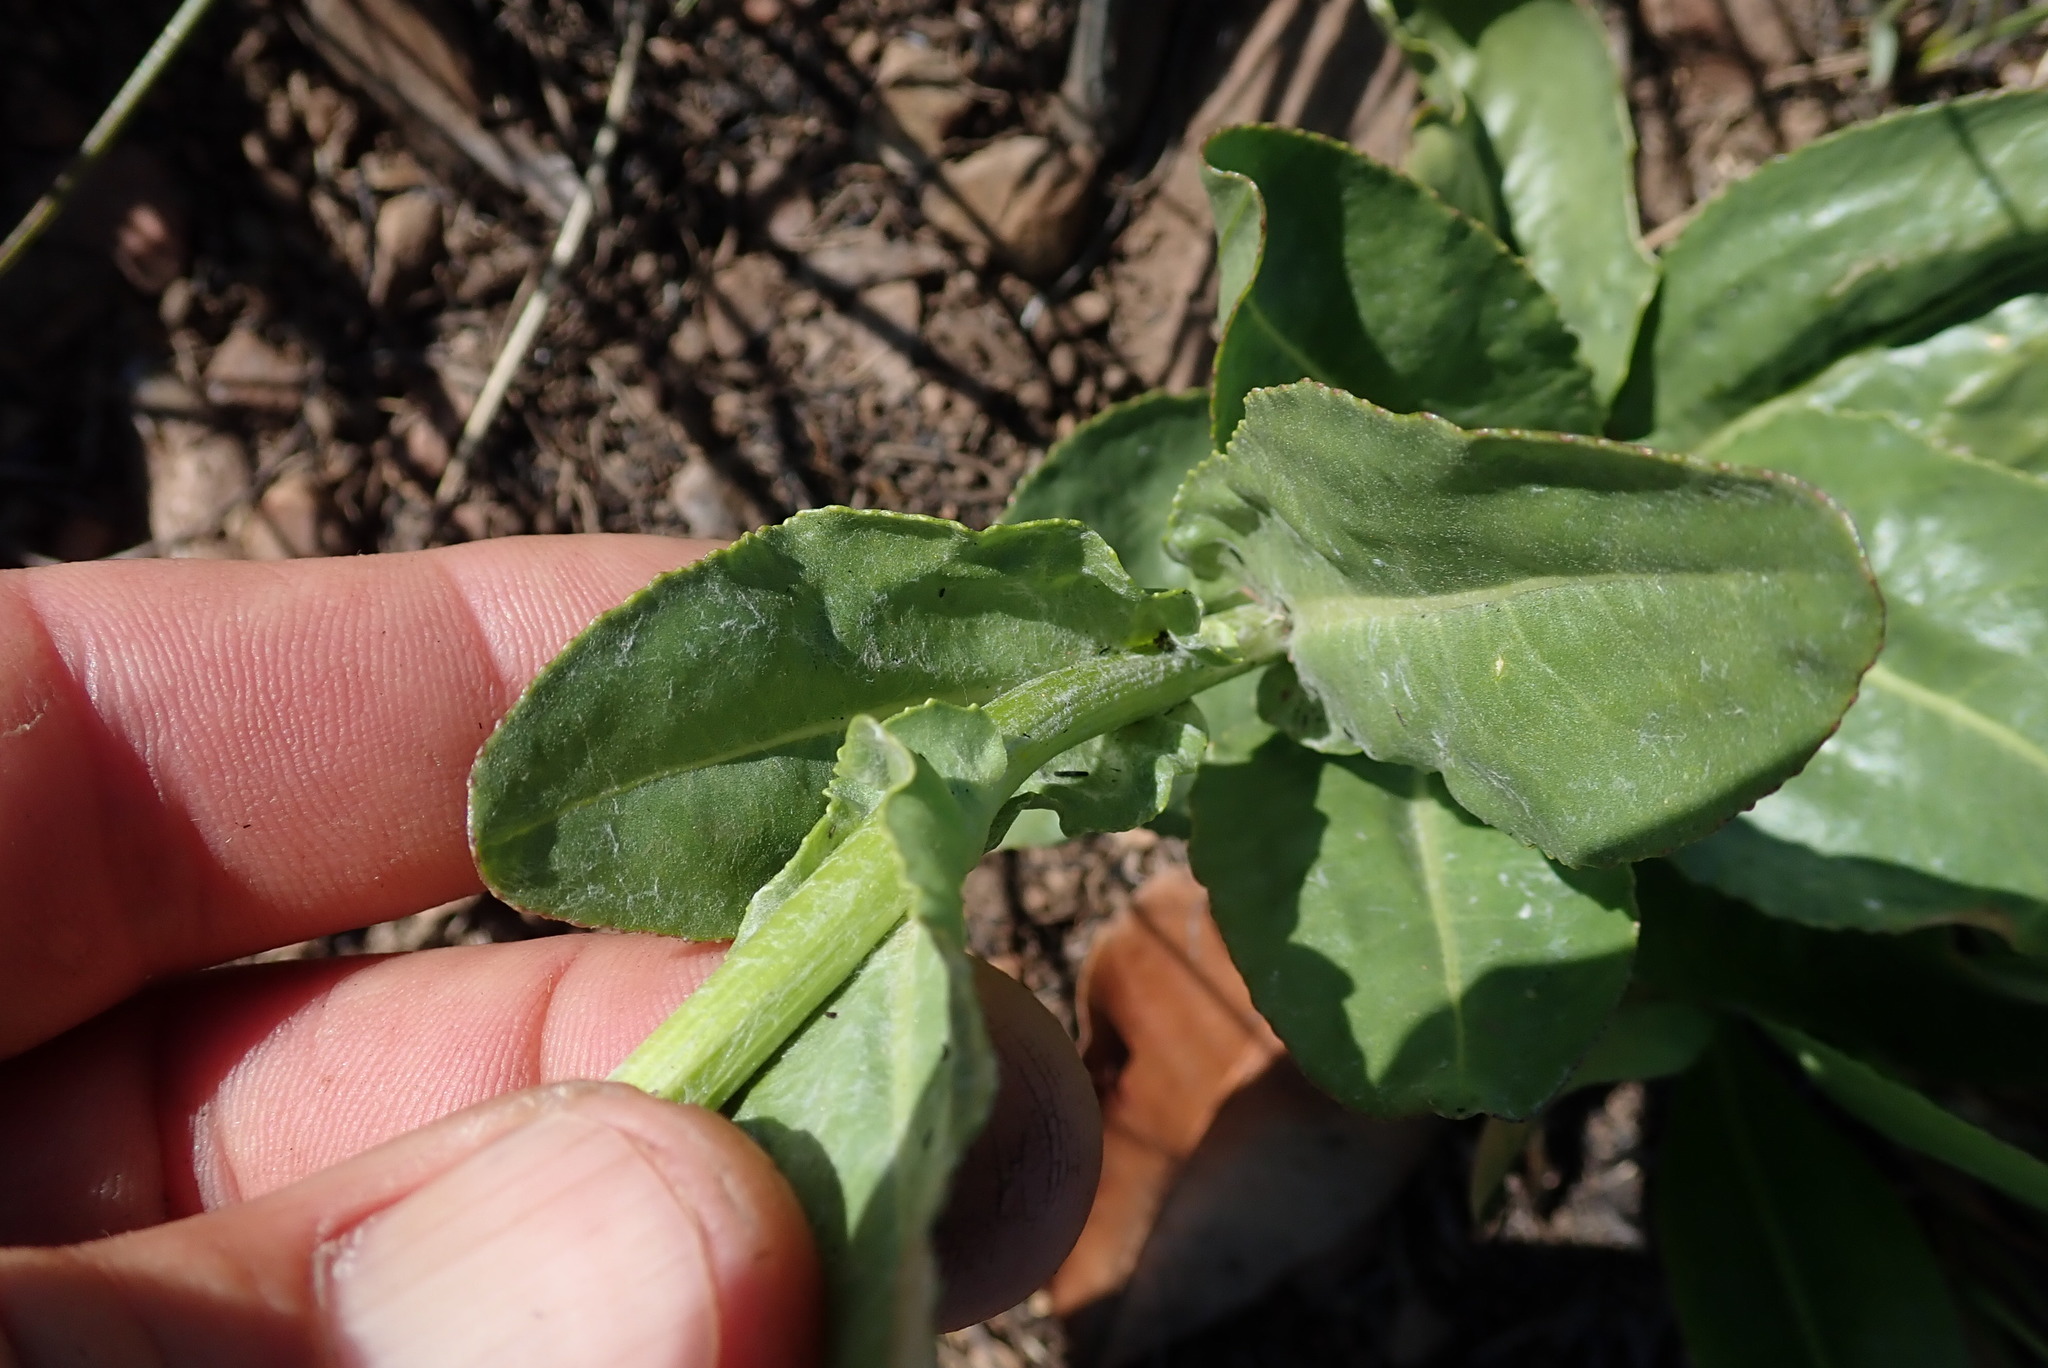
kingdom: Plantae
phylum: Tracheophyta
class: Magnoliopsida
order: Asterales
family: Asteraceae
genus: Senecio
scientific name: Senecio coronatus
